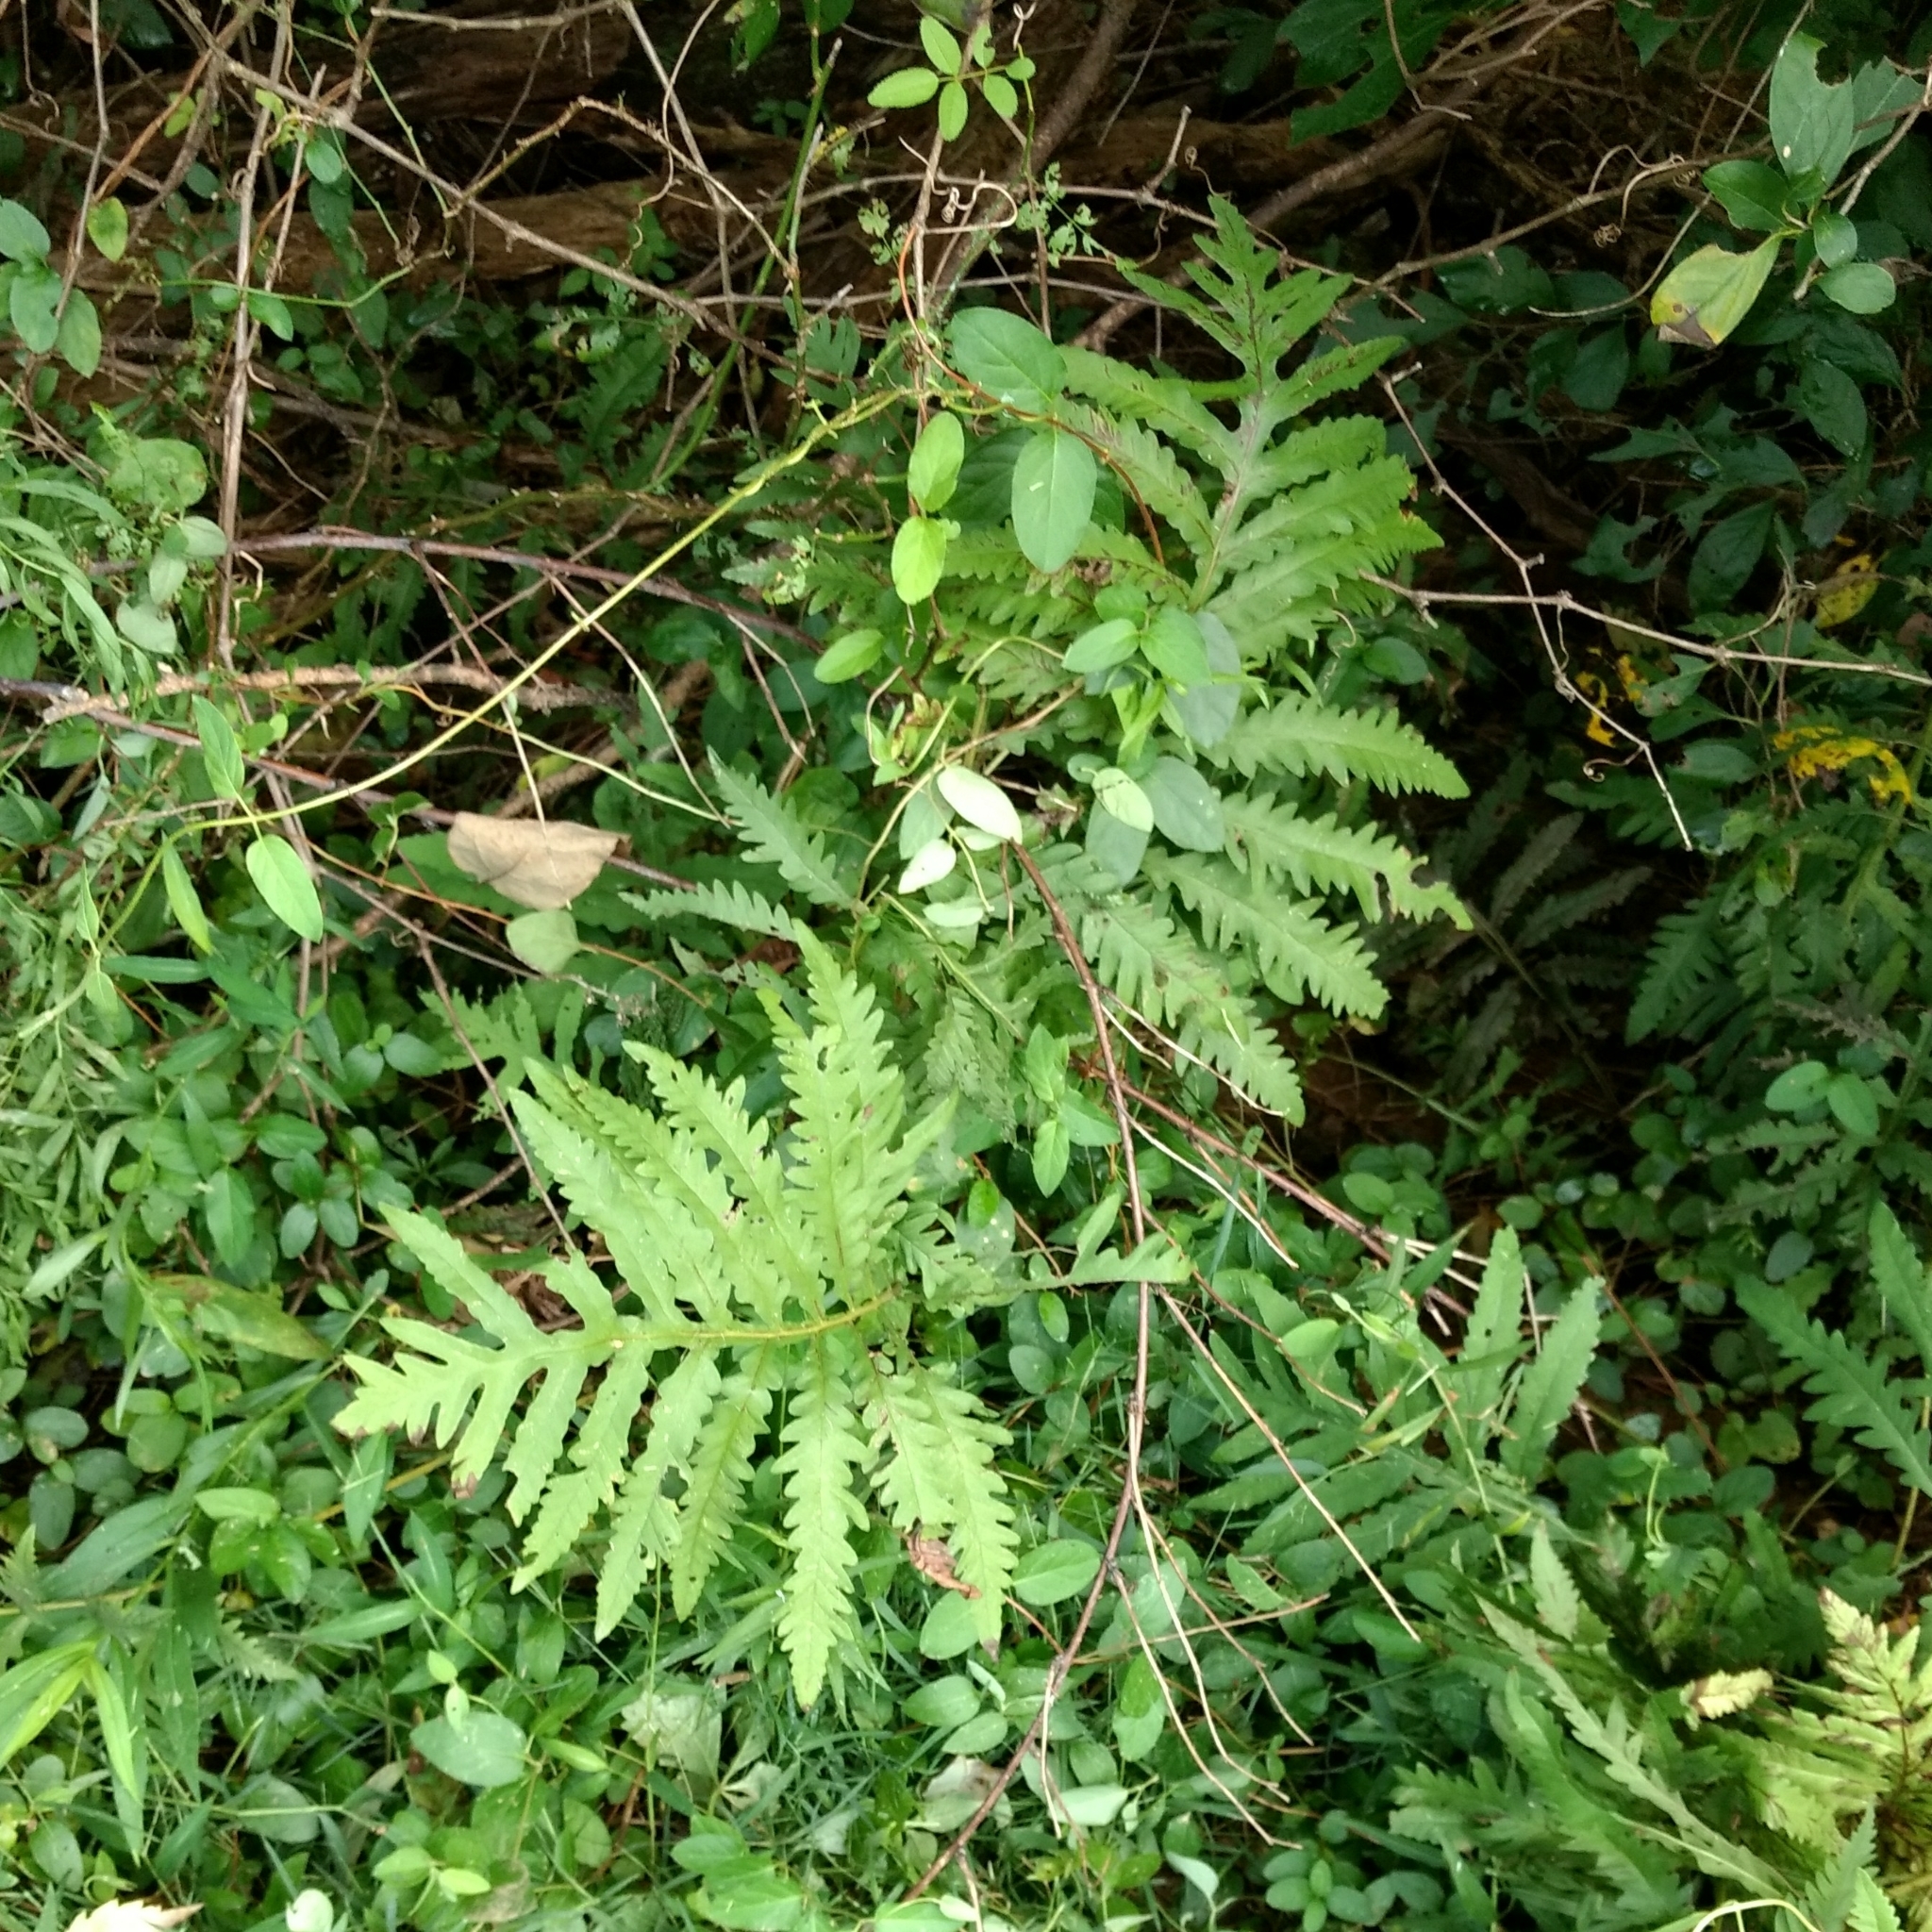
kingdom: Plantae
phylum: Tracheophyta
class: Polypodiopsida
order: Polypodiales
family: Onocleaceae
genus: Onoclea
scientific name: Onoclea sensibilis
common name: Sensitive fern
